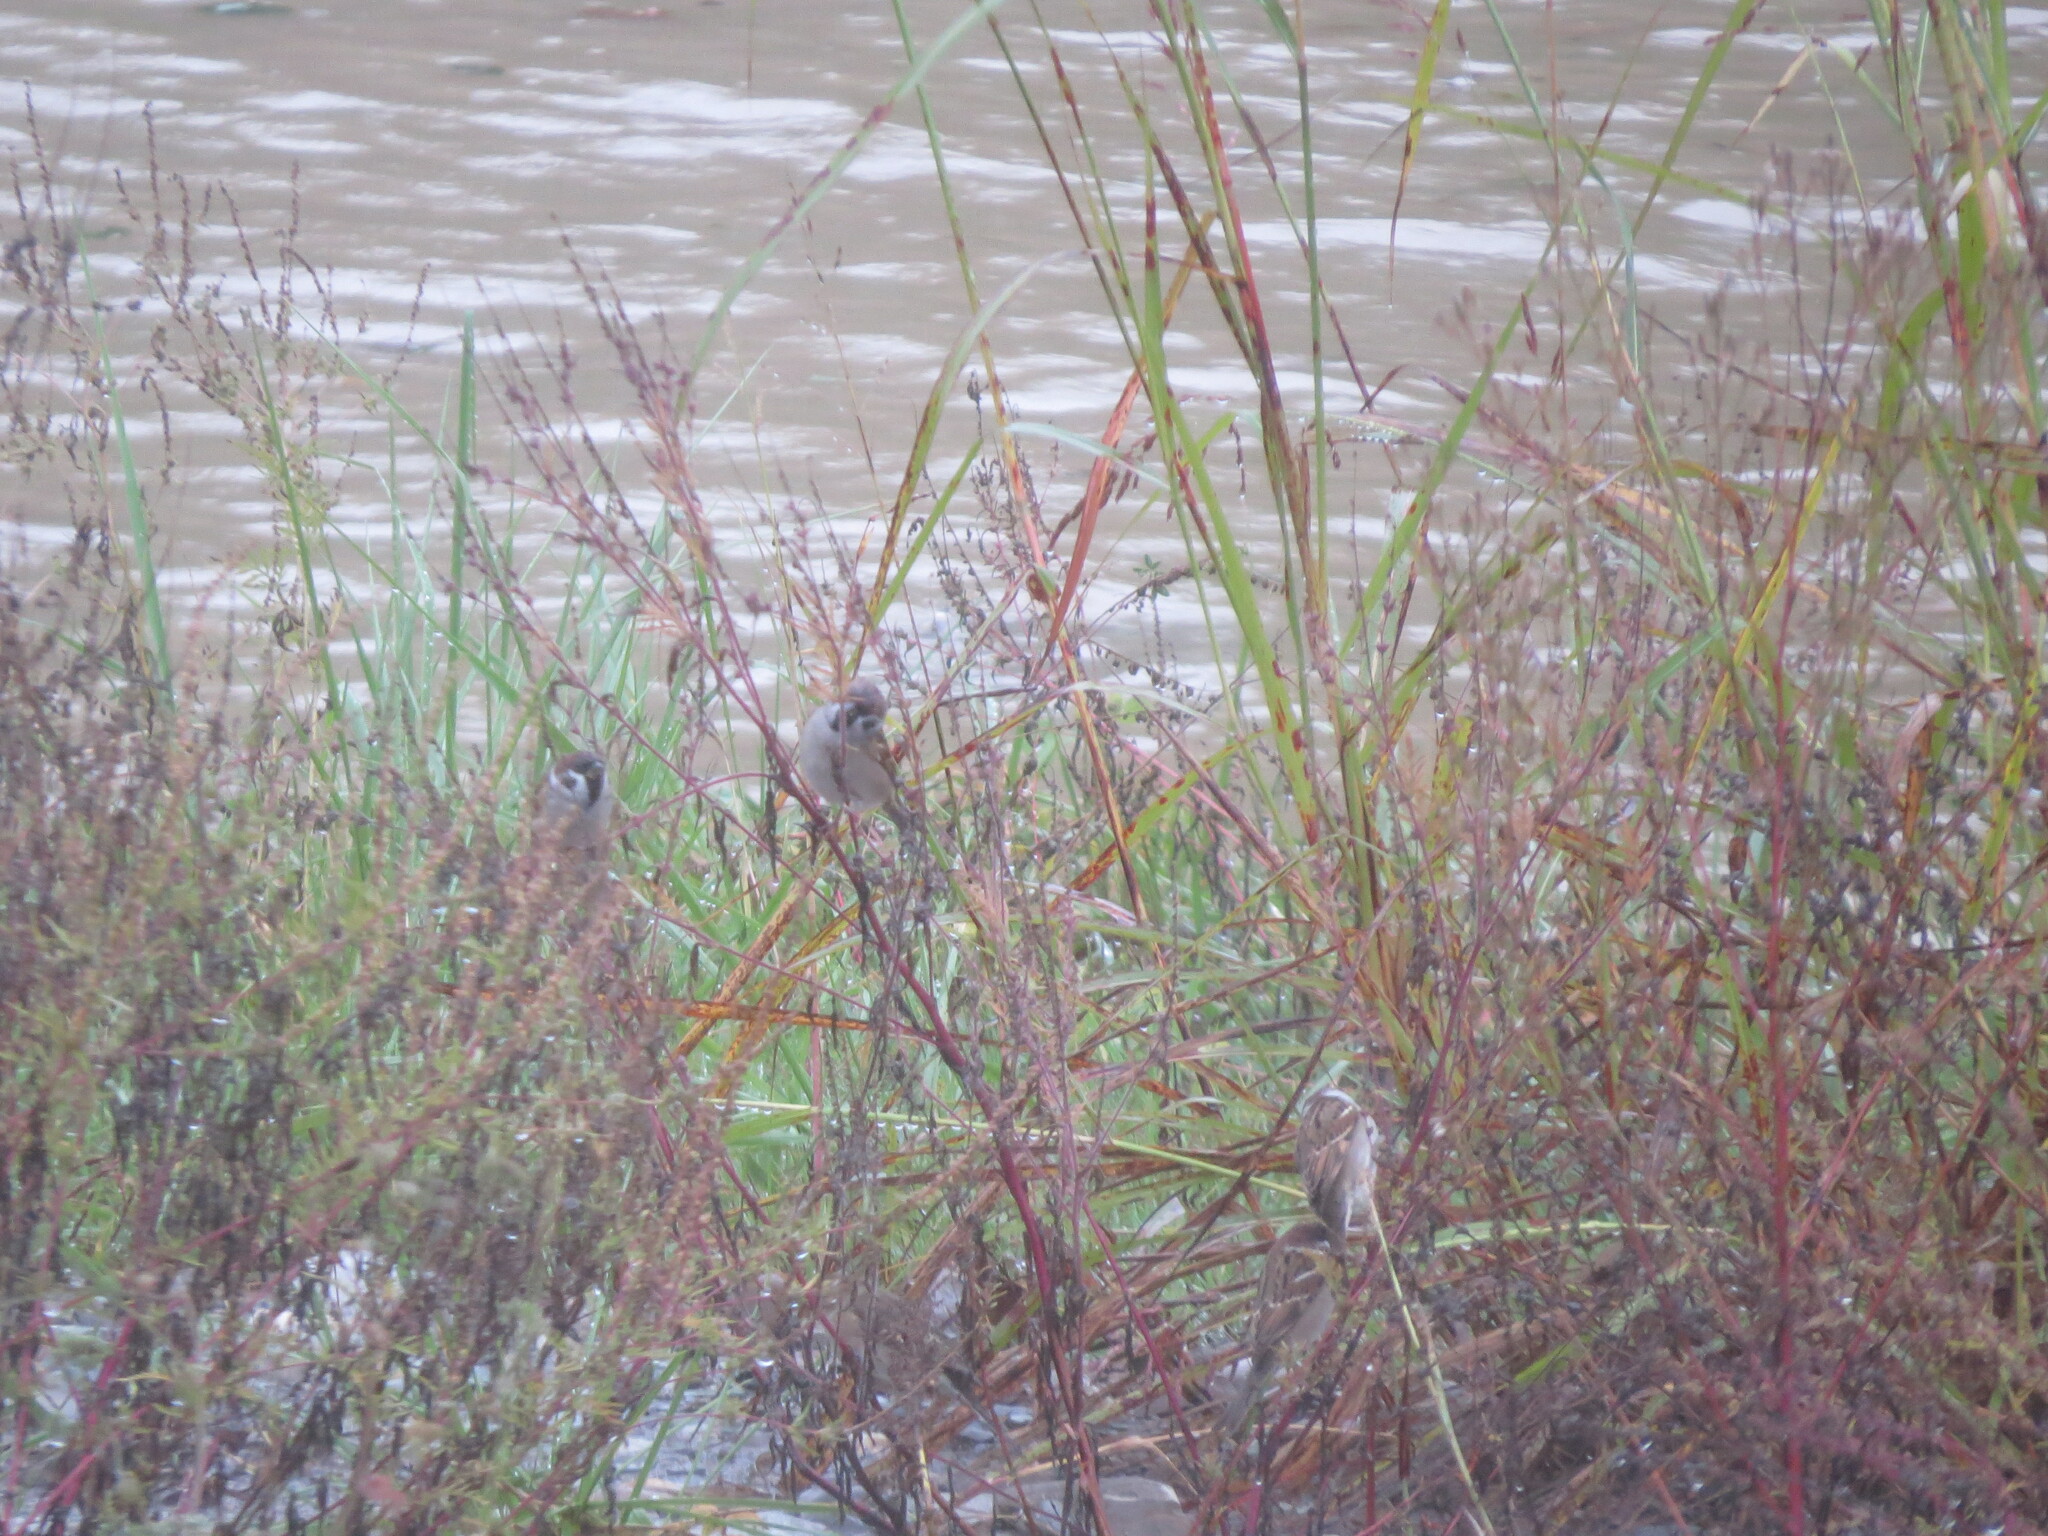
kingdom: Animalia
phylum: Chordata
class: Aves
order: Passeriformes
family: Passeridae
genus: Passer
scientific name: Passer montanus
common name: Eurasian tree sparrow
